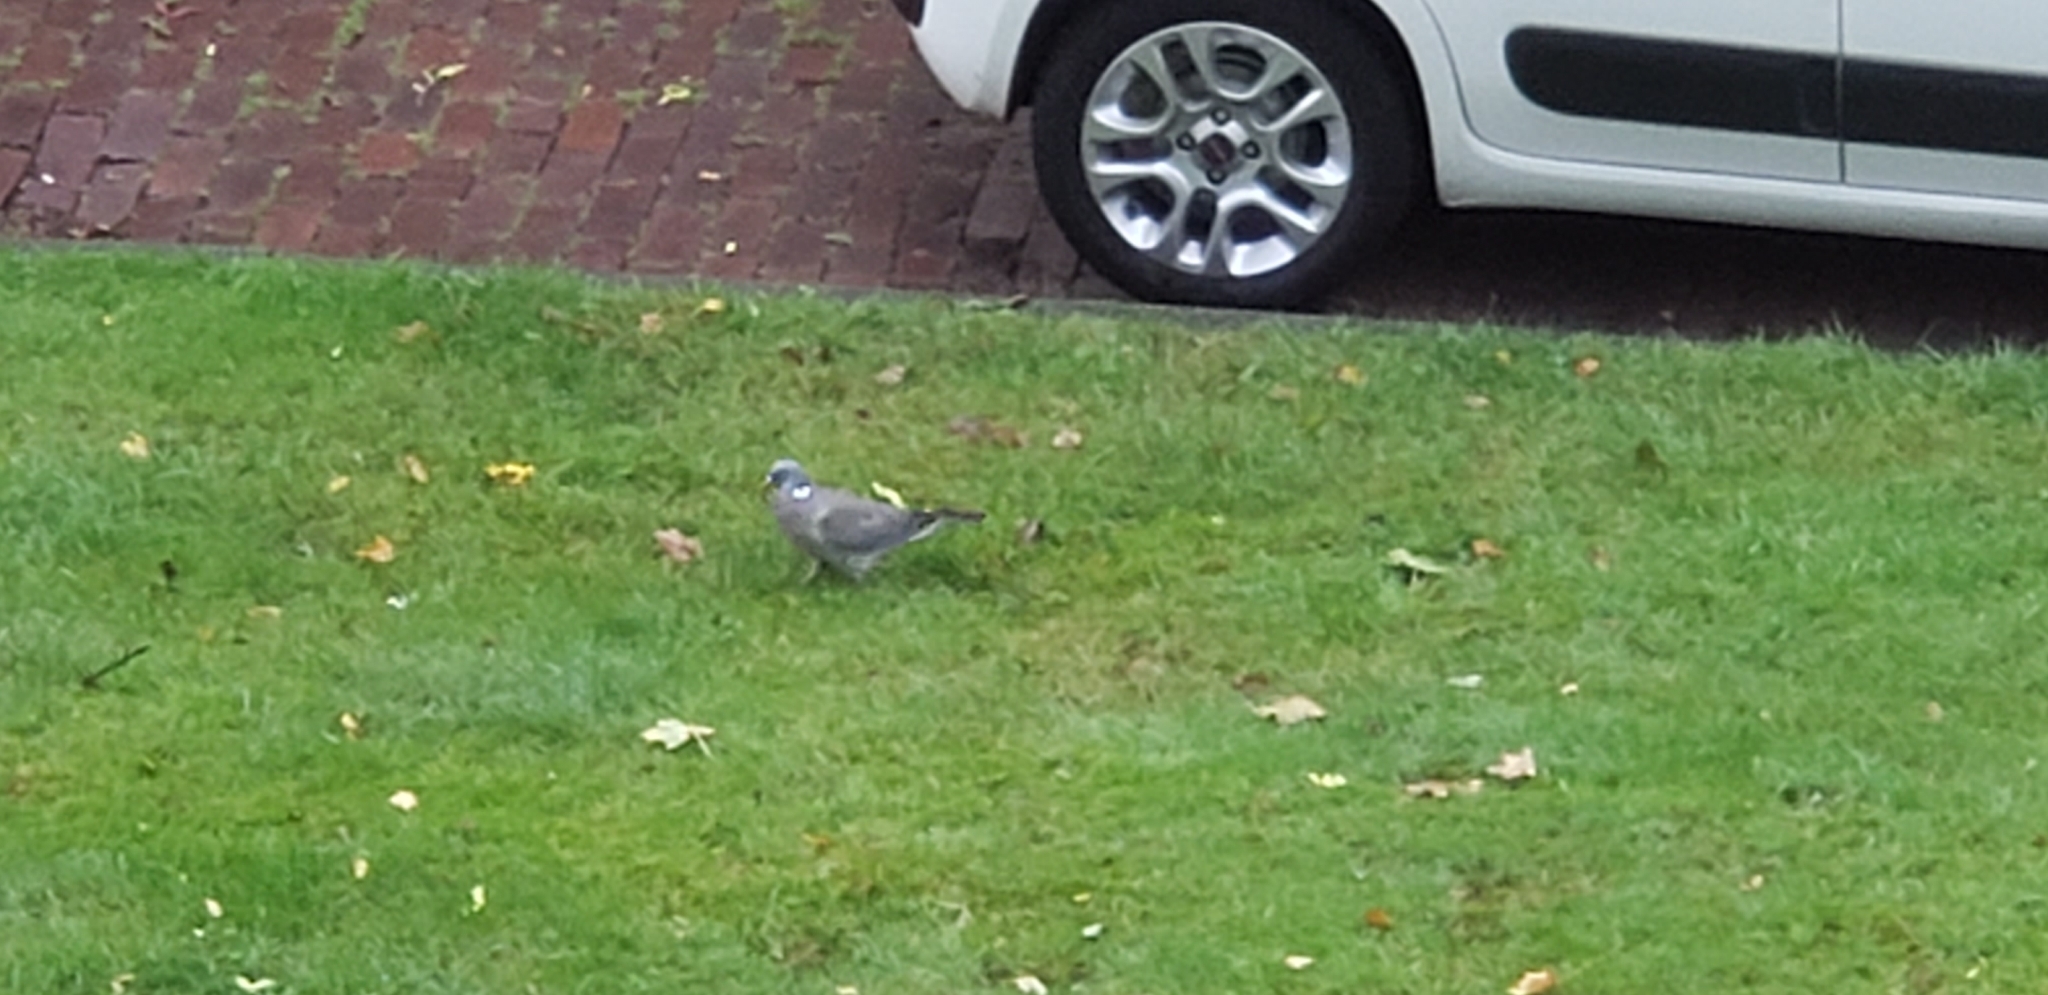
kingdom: Animalia
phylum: Chordata
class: Aves
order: Columbiformes
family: Columbidae
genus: Columba
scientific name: Columba palumbus
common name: Common wood pigeon
